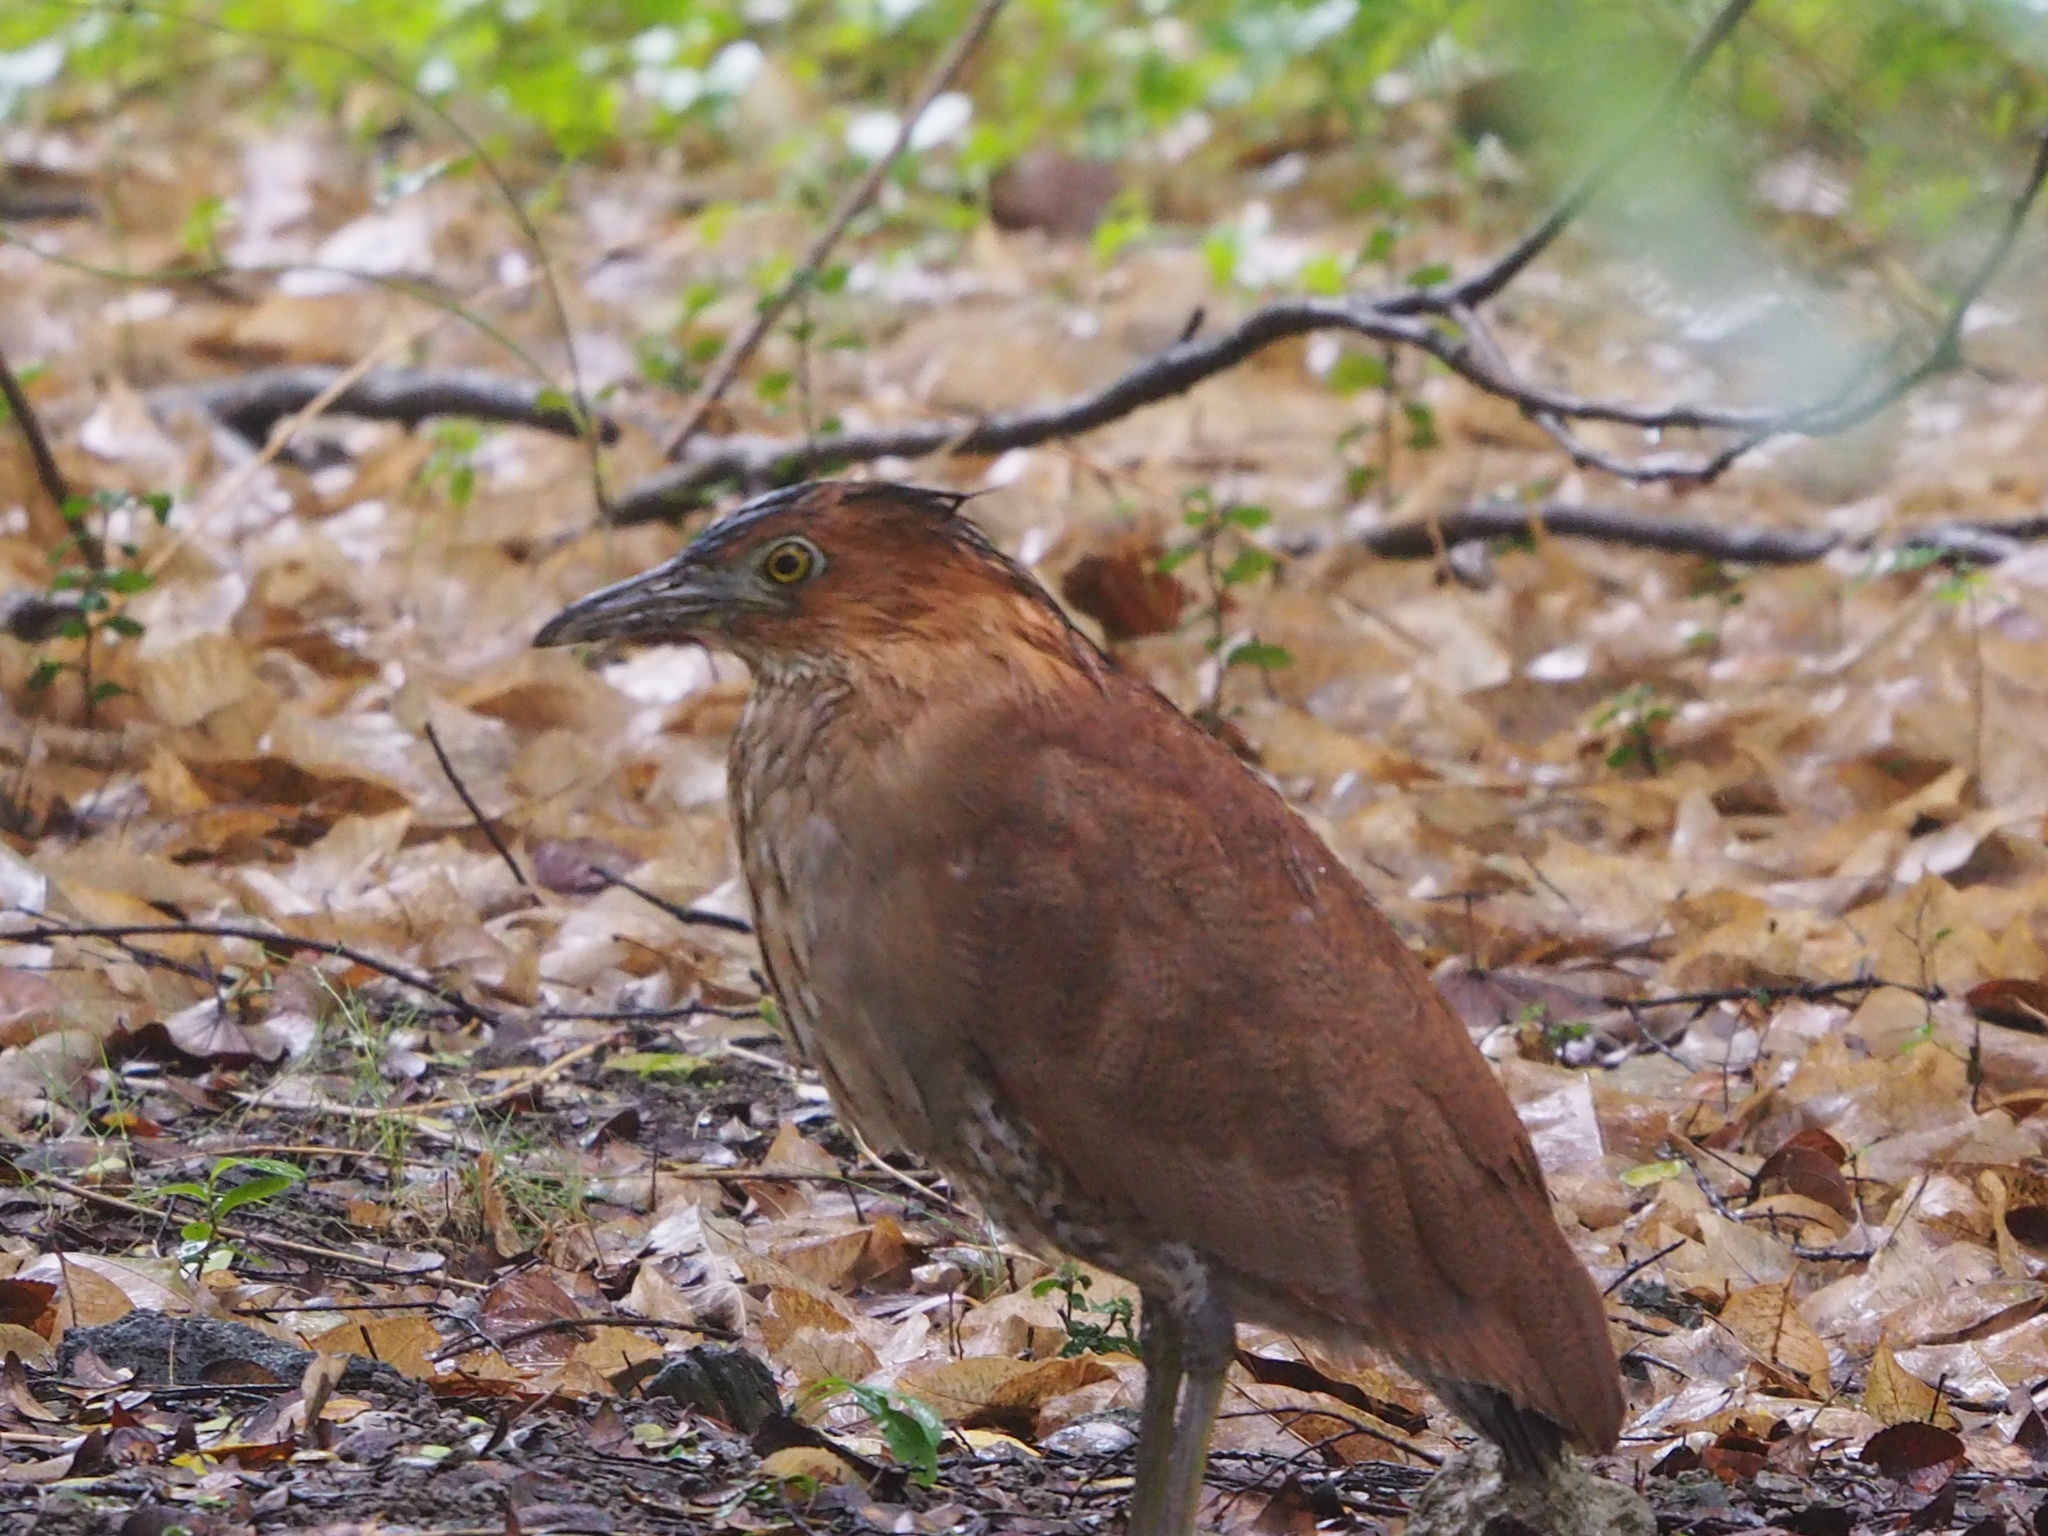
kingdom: Animalia
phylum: Chordata
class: Aves
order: Pelecaniformes
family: Ardeidae
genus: Gorsachius
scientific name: Gorsachius melanolophus
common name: Malayan night heron
